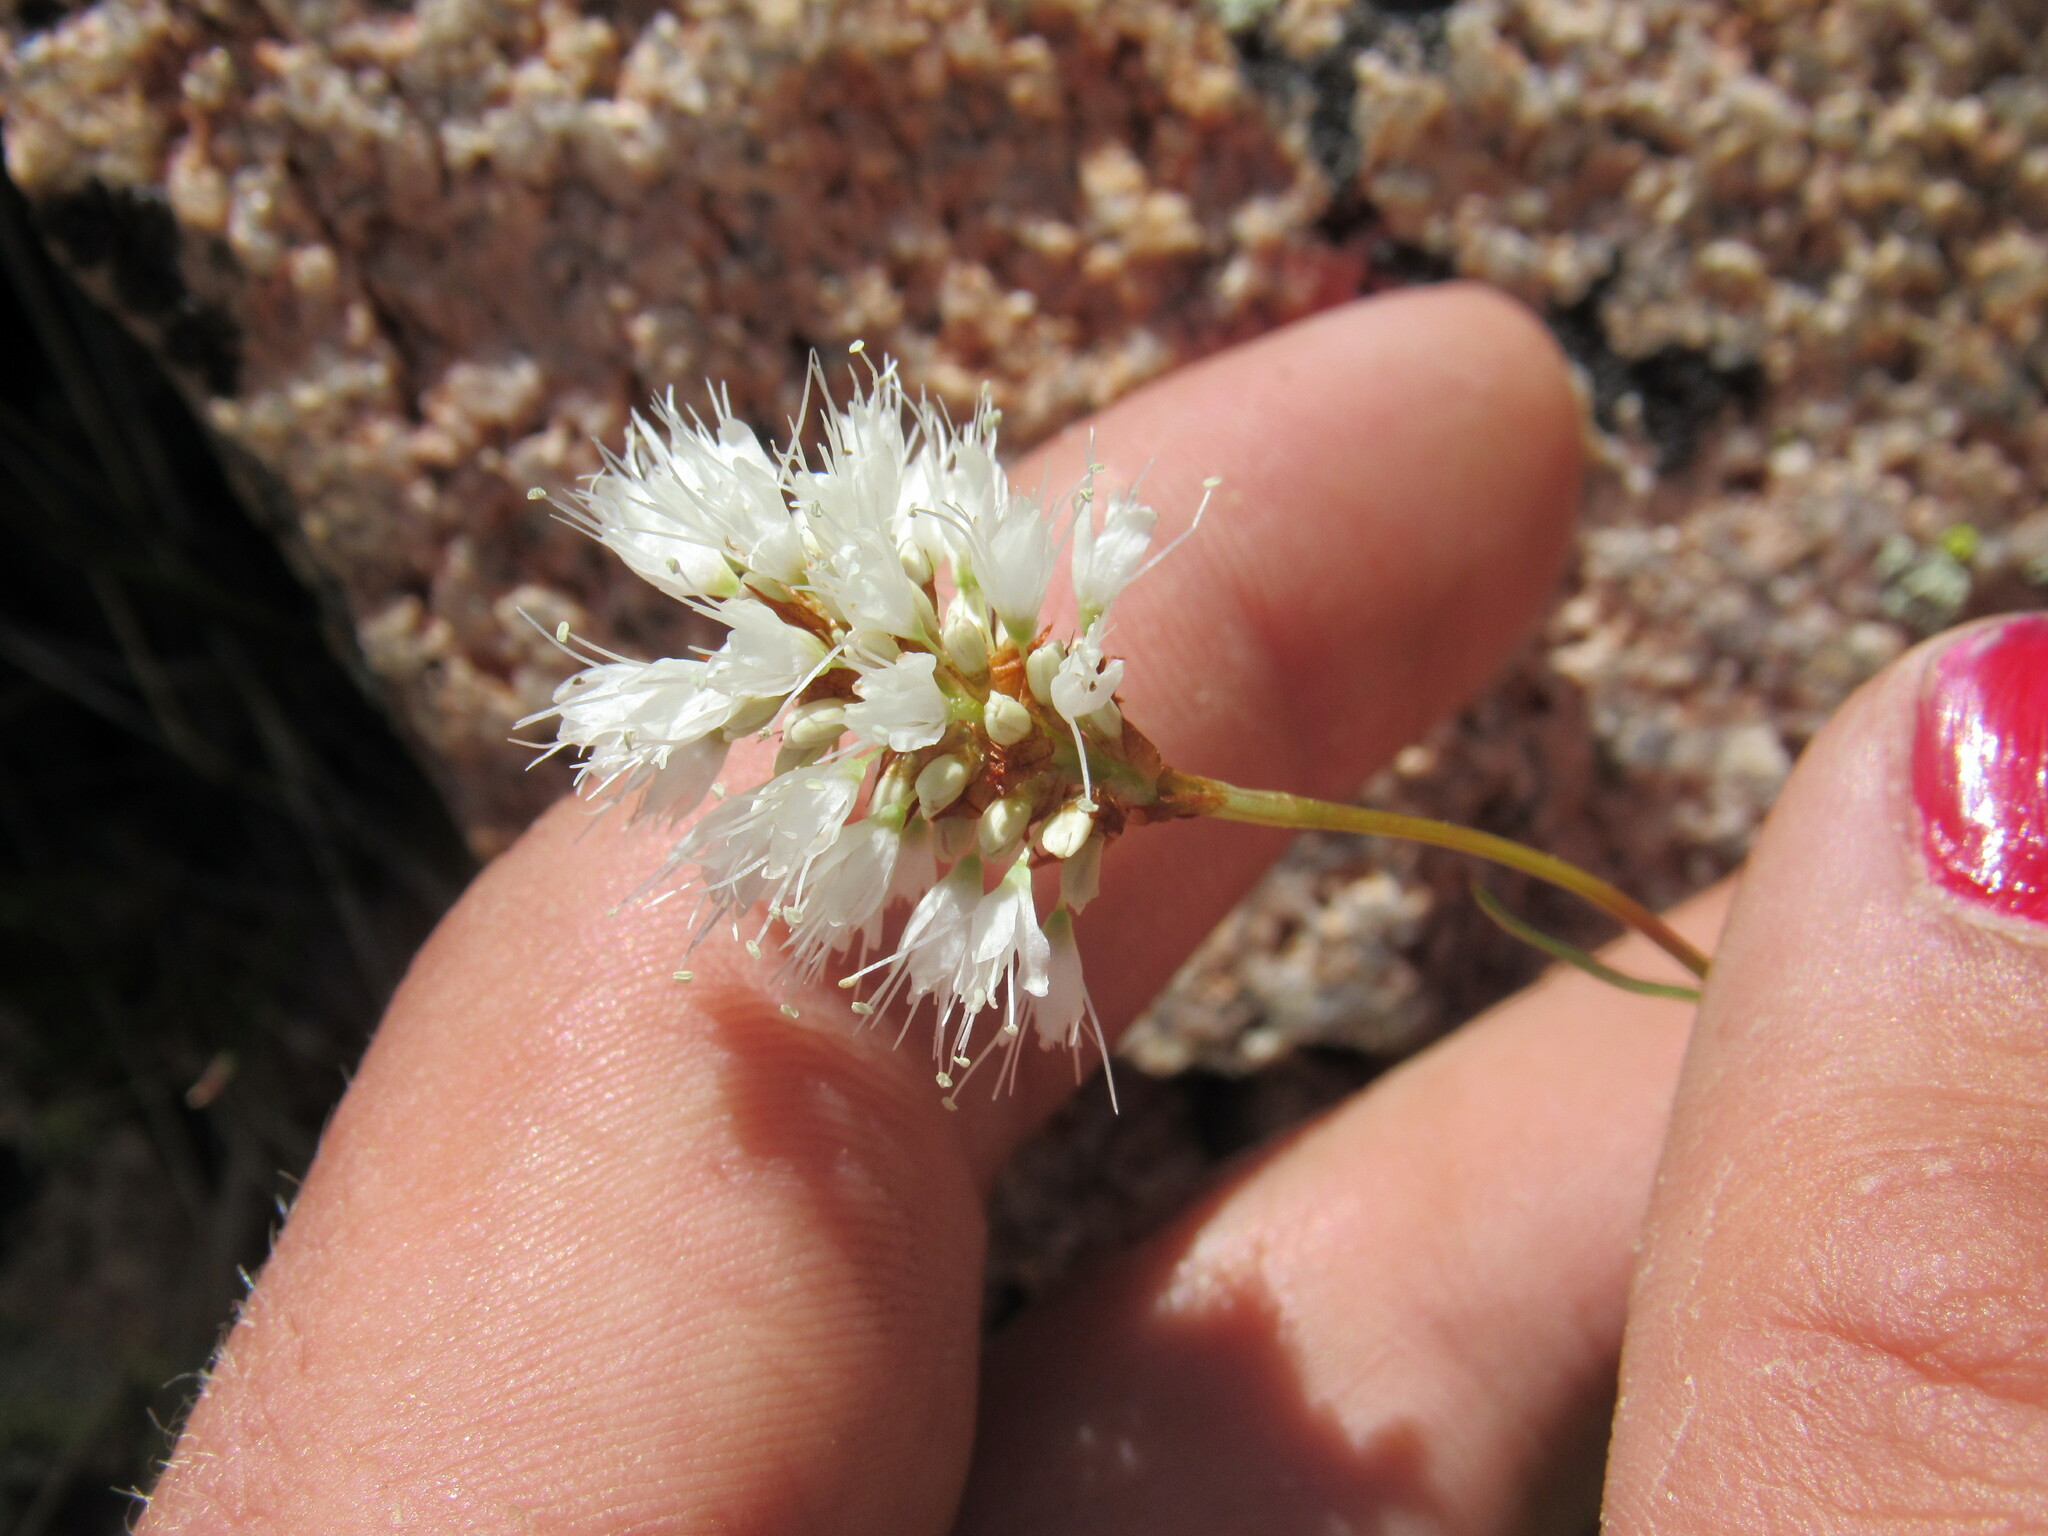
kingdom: Plantae
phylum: Tracheophyta
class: Magnoliopsida
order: Caryophyllales
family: Polygonaceae
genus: Bistorta
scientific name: Bistorta bistortoides
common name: American bistort
